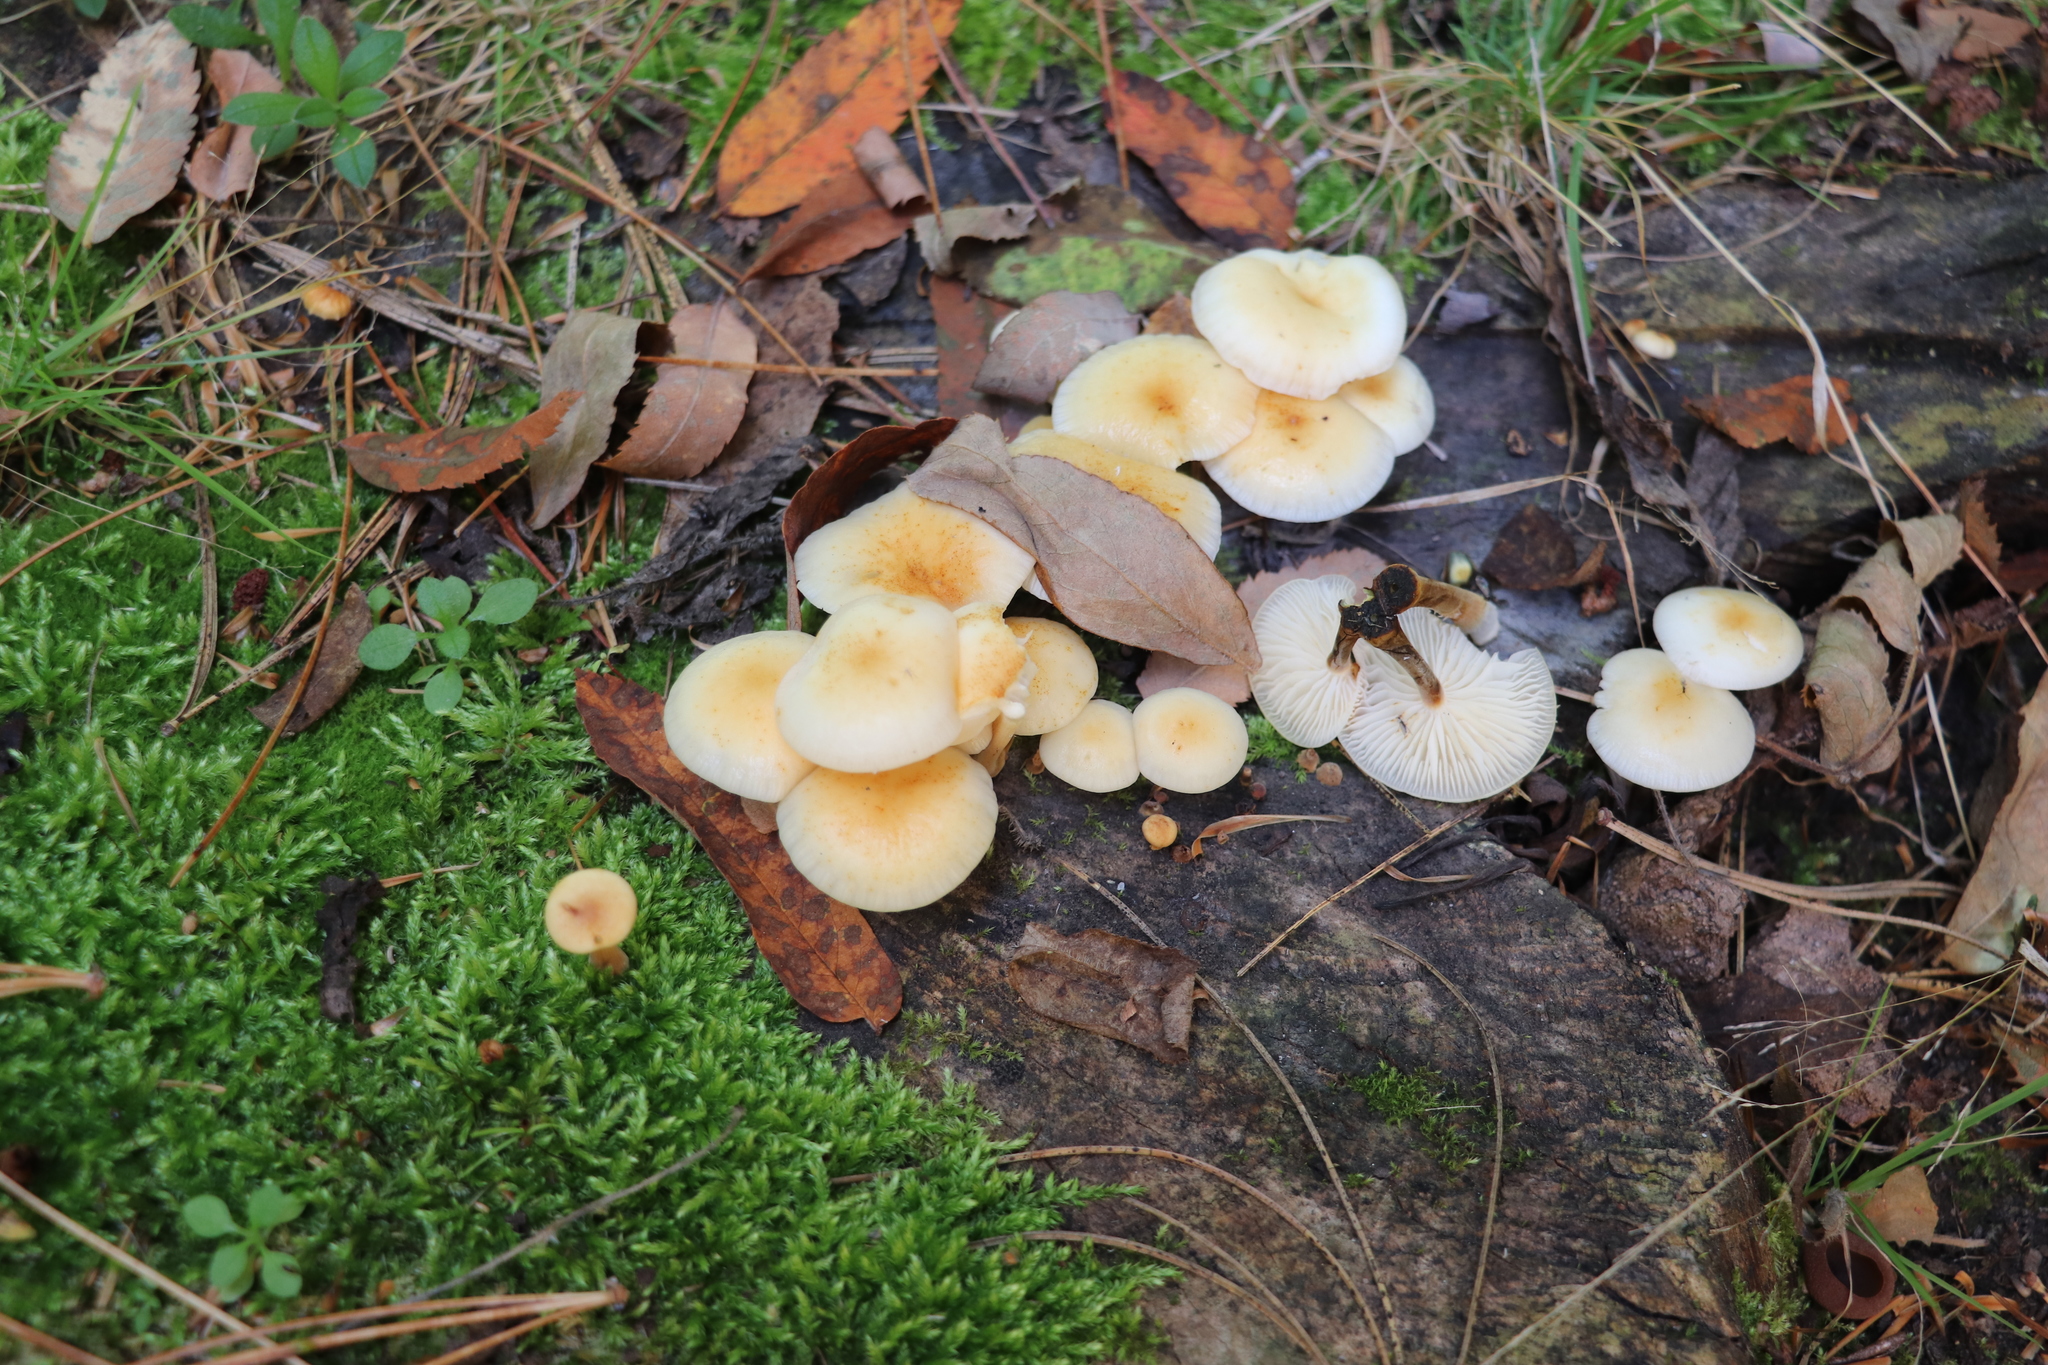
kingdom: Fungi
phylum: Basidiomycota
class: Agaricomycetes
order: Agaricales
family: Physalacriaceae
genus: Flammulina
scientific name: Flammulina velutipes
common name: Velvet shank
